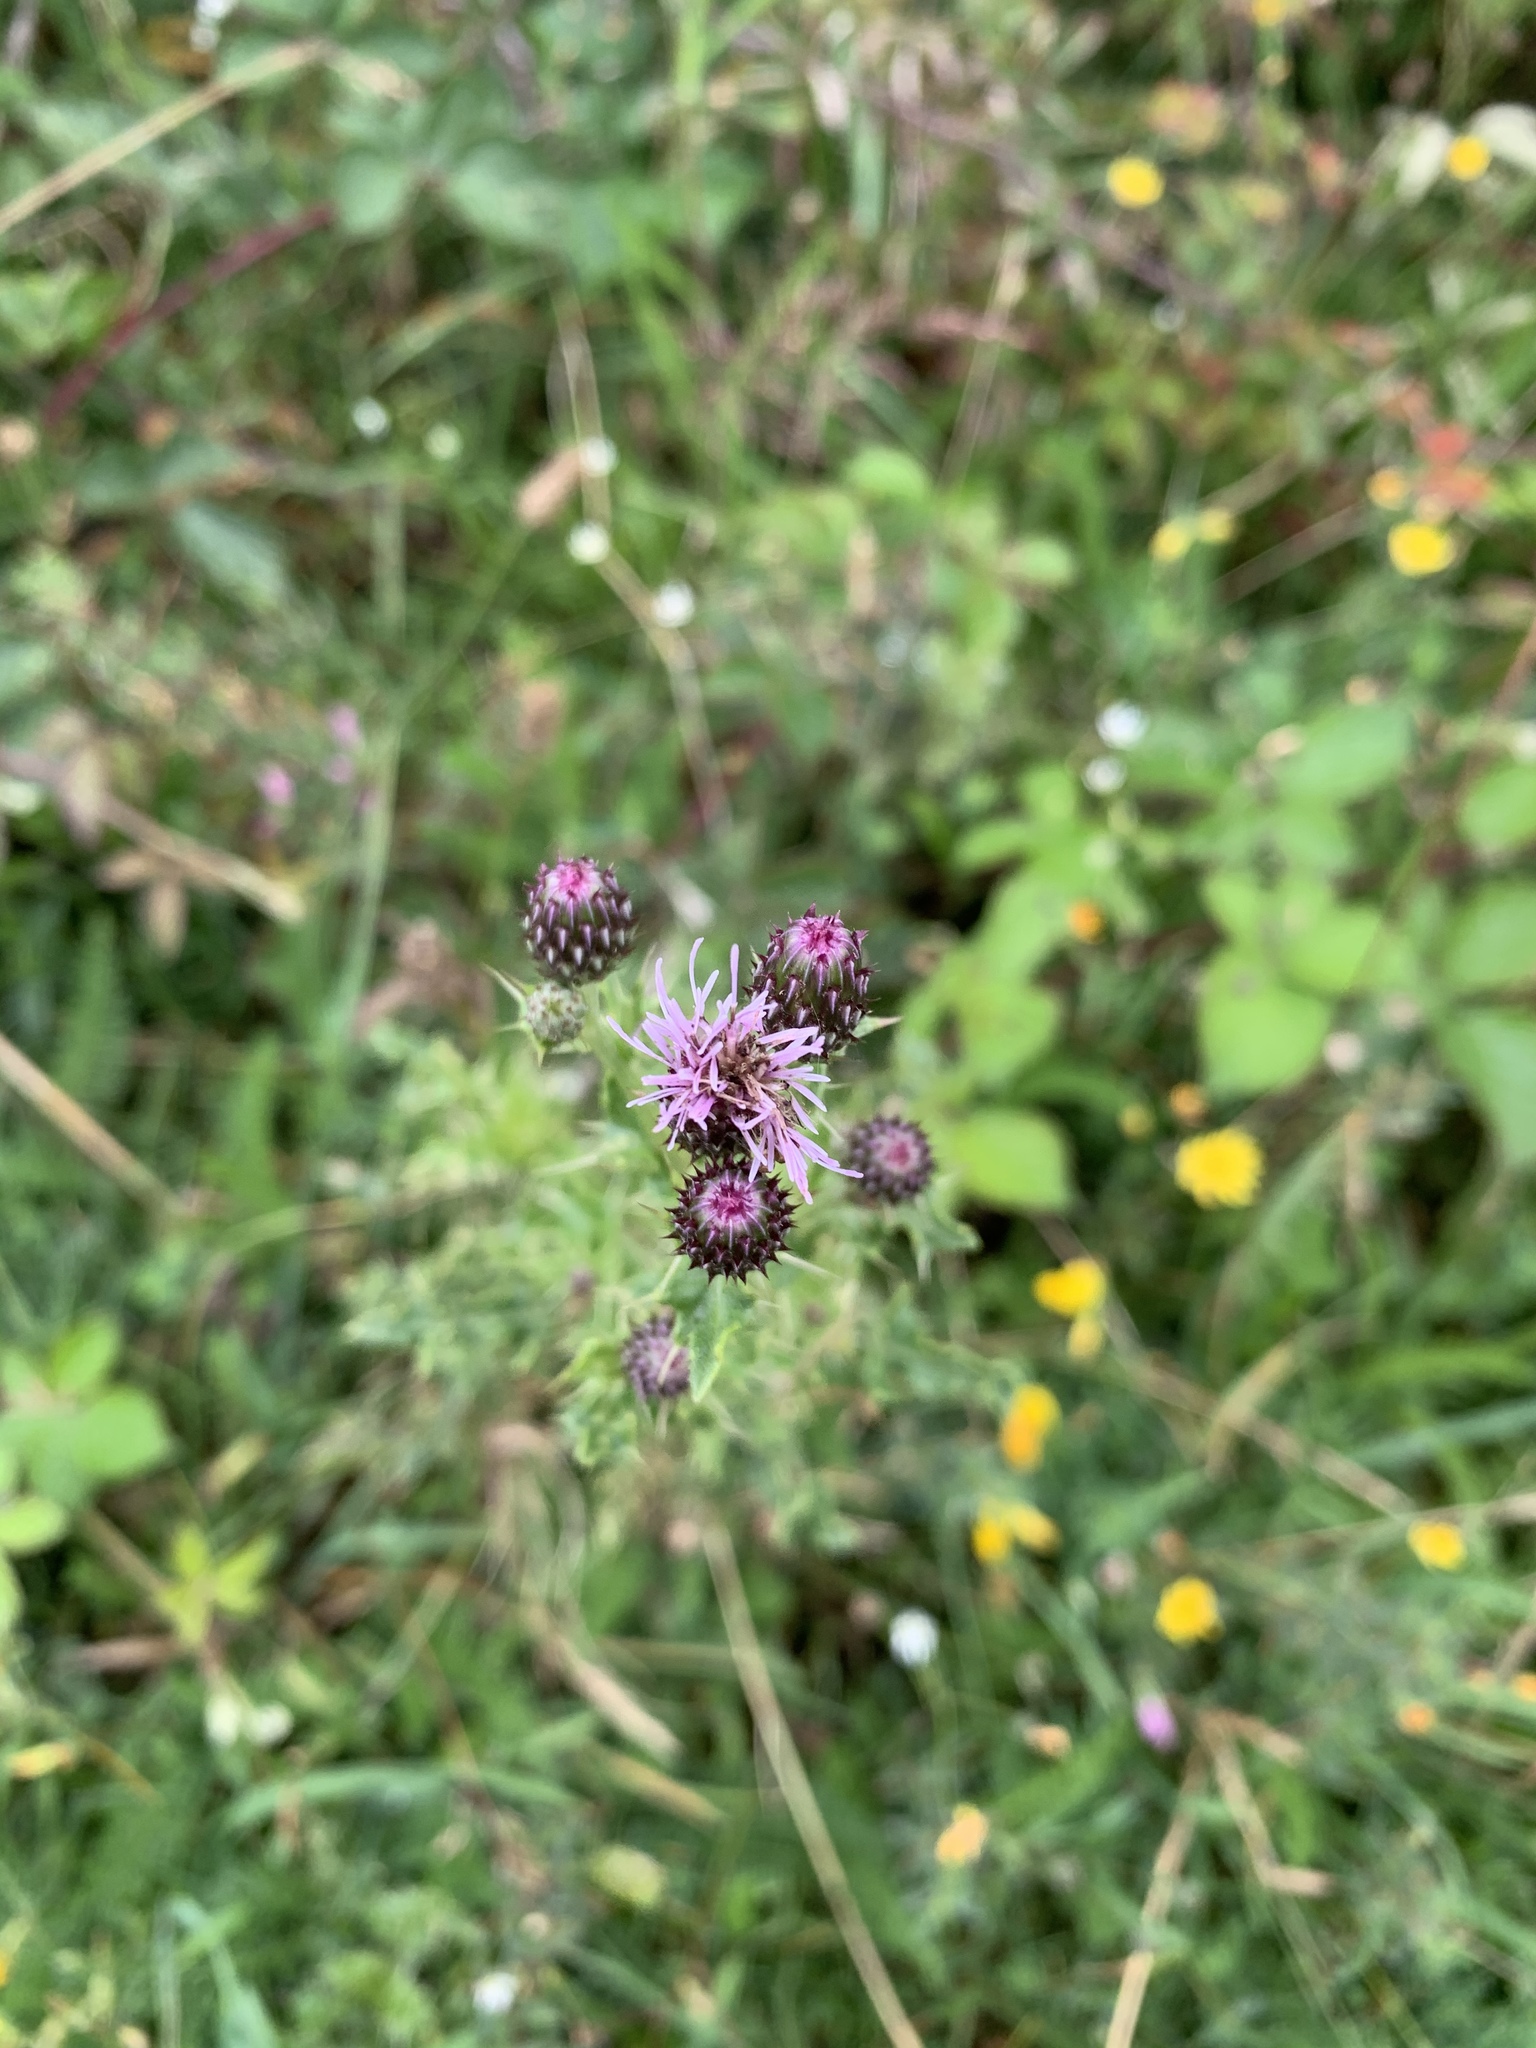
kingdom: Plantae
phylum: Tracheophyta
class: Magnoliopsida
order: Asterales
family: Asteraceae
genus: Cirsium
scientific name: Cirsium arvense
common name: Creeping thistle
